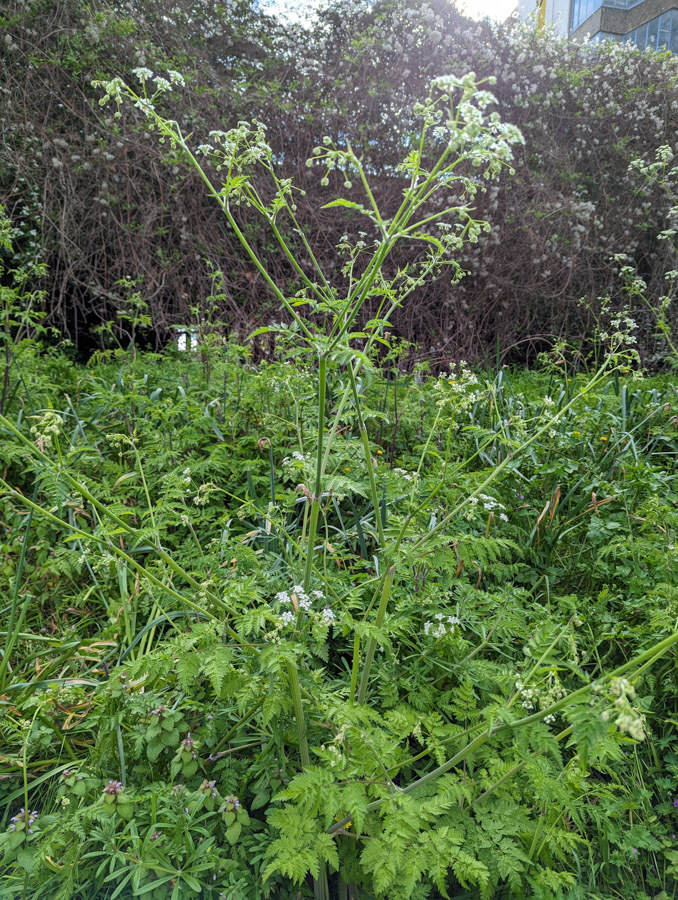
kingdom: Plantae
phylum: Tracheophyta
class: Magnoliopsida
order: Apiales
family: Apiaceae
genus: Anthriscus
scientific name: Anthriscus sylvestris
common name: Cow parsley
